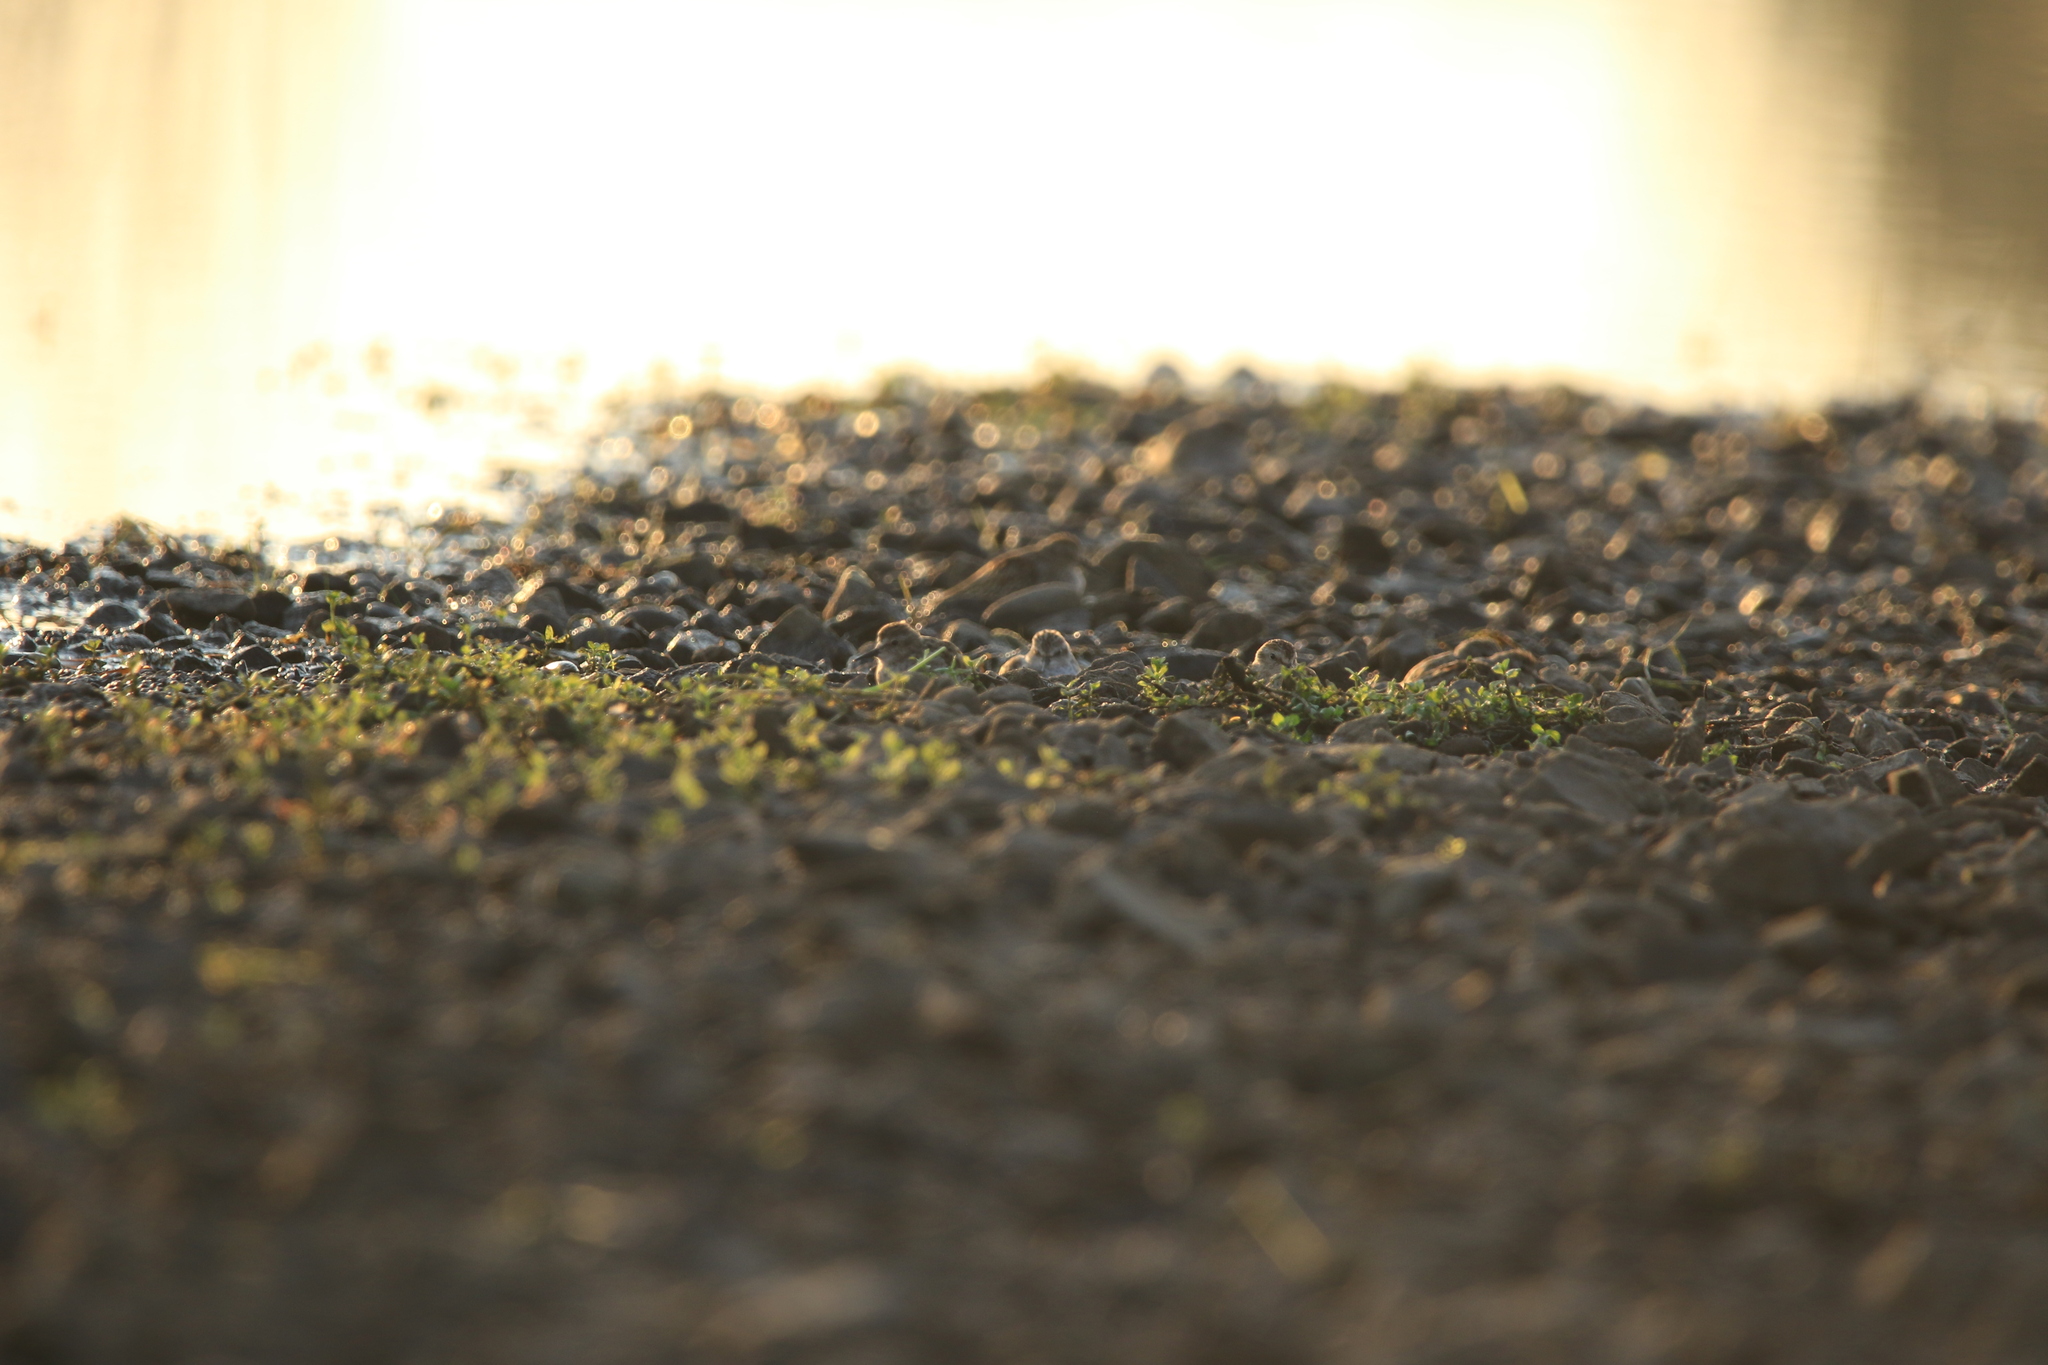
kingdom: Animalia
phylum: Chordata
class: Aves
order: Charadriiformes
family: Scolopacidae
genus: Calidris
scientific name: Calidris minutilla
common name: Least sandpiper
